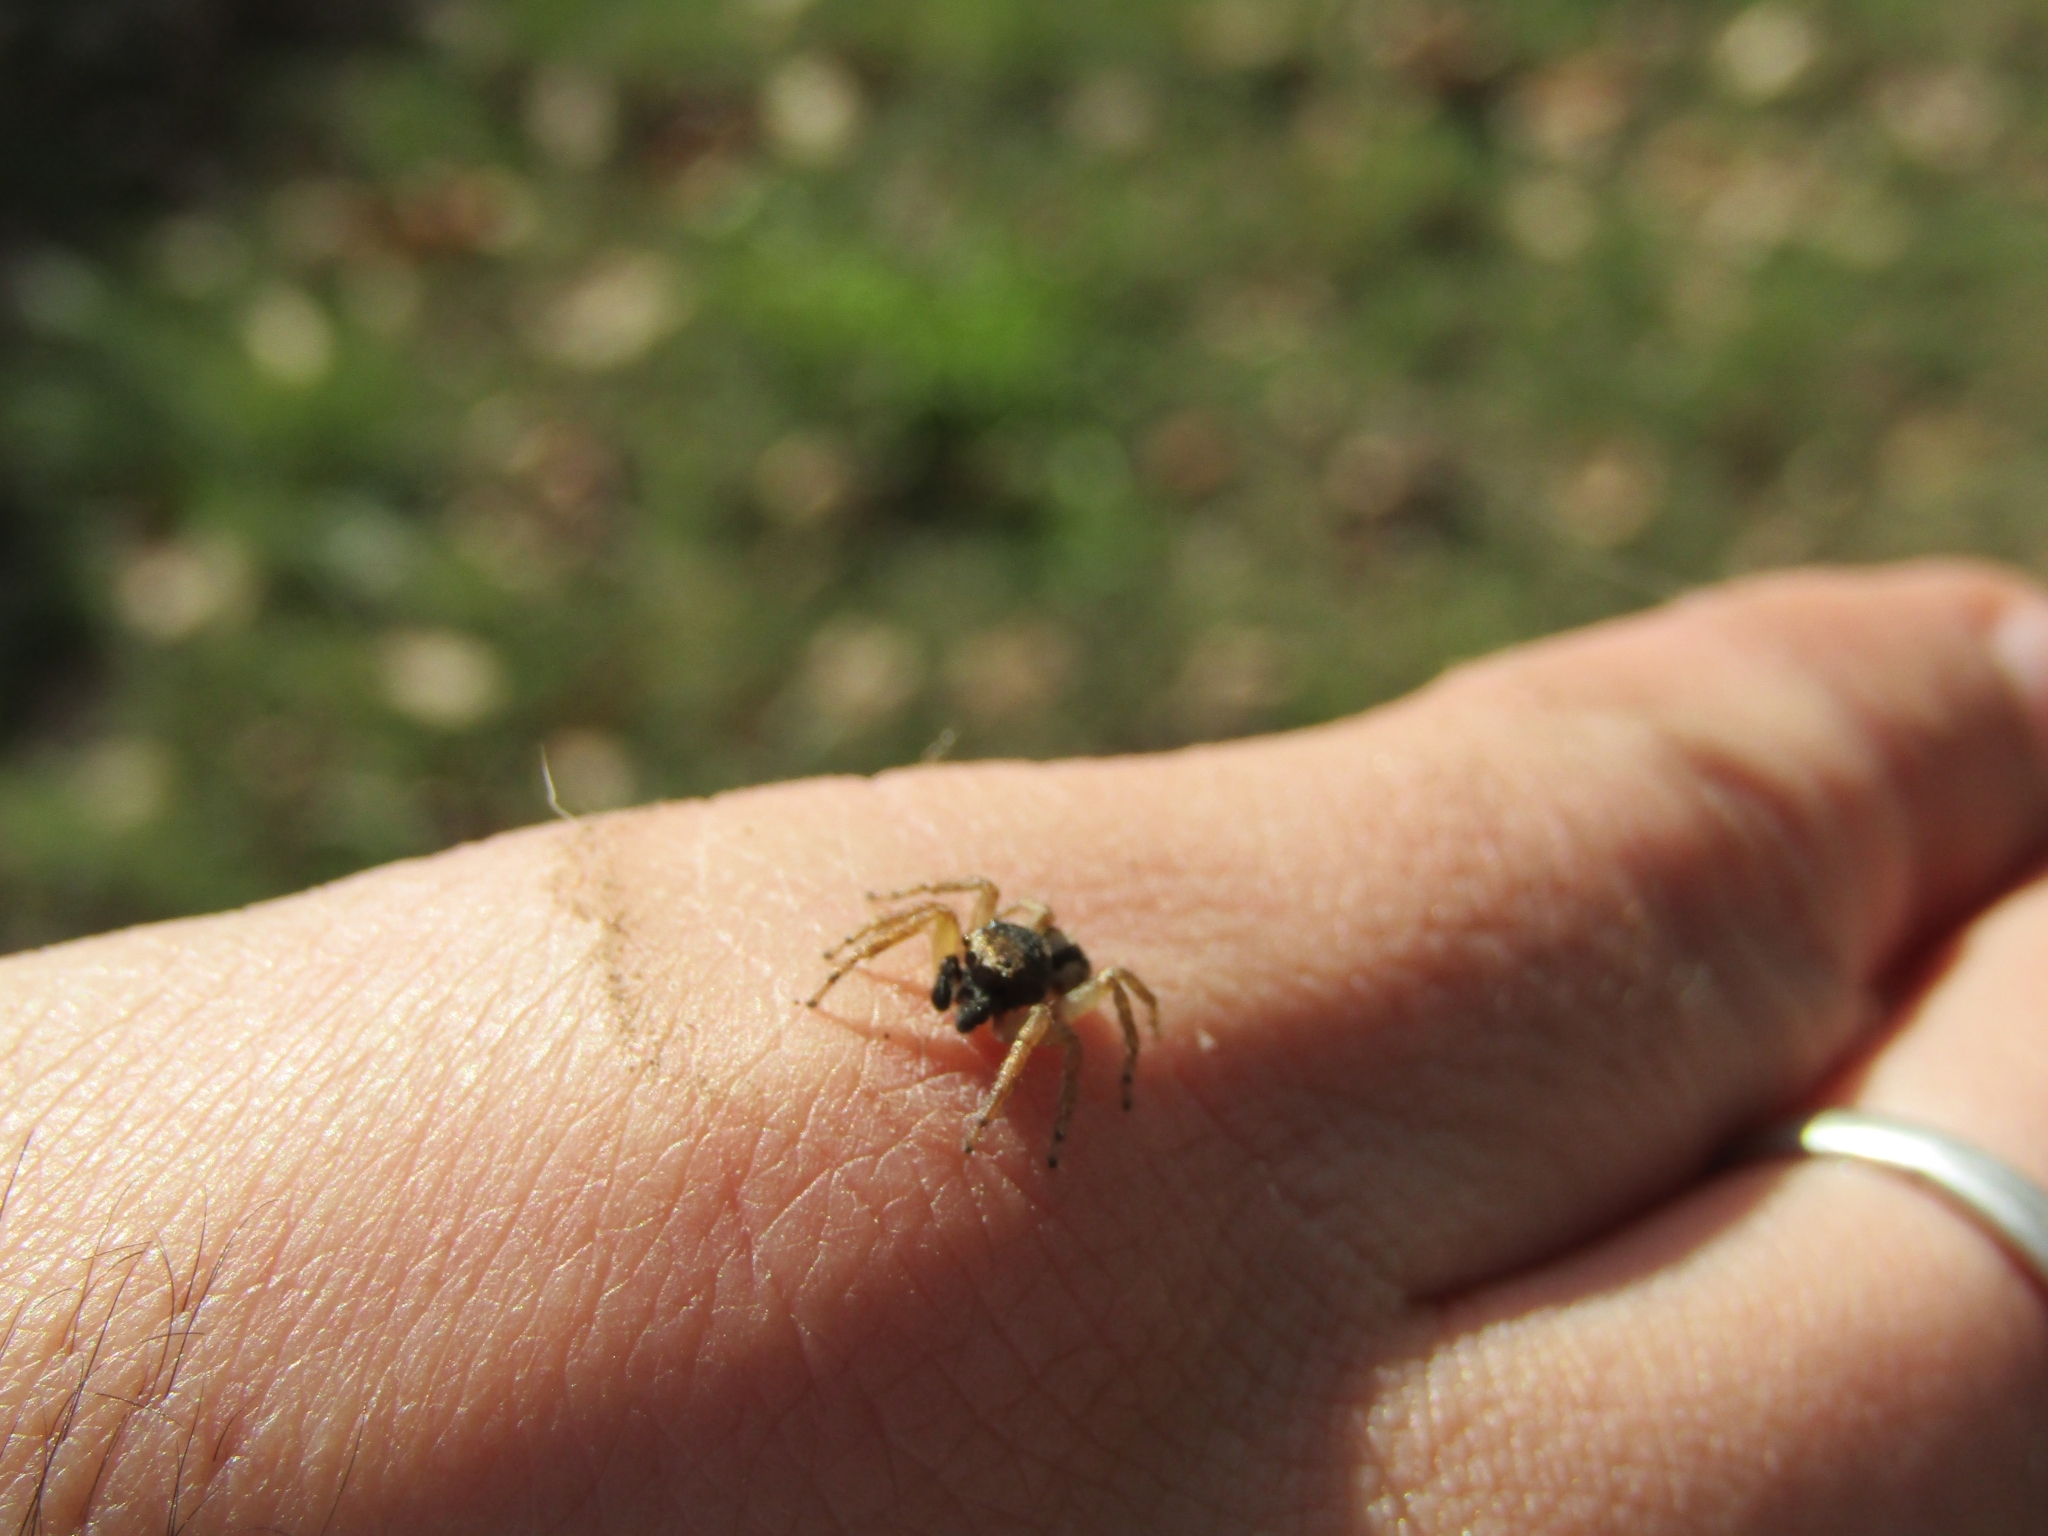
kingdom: Animalia
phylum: Arthropoda
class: Arachnida
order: Araneae
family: Salticidae
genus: Aphirape
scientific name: Aphirape
